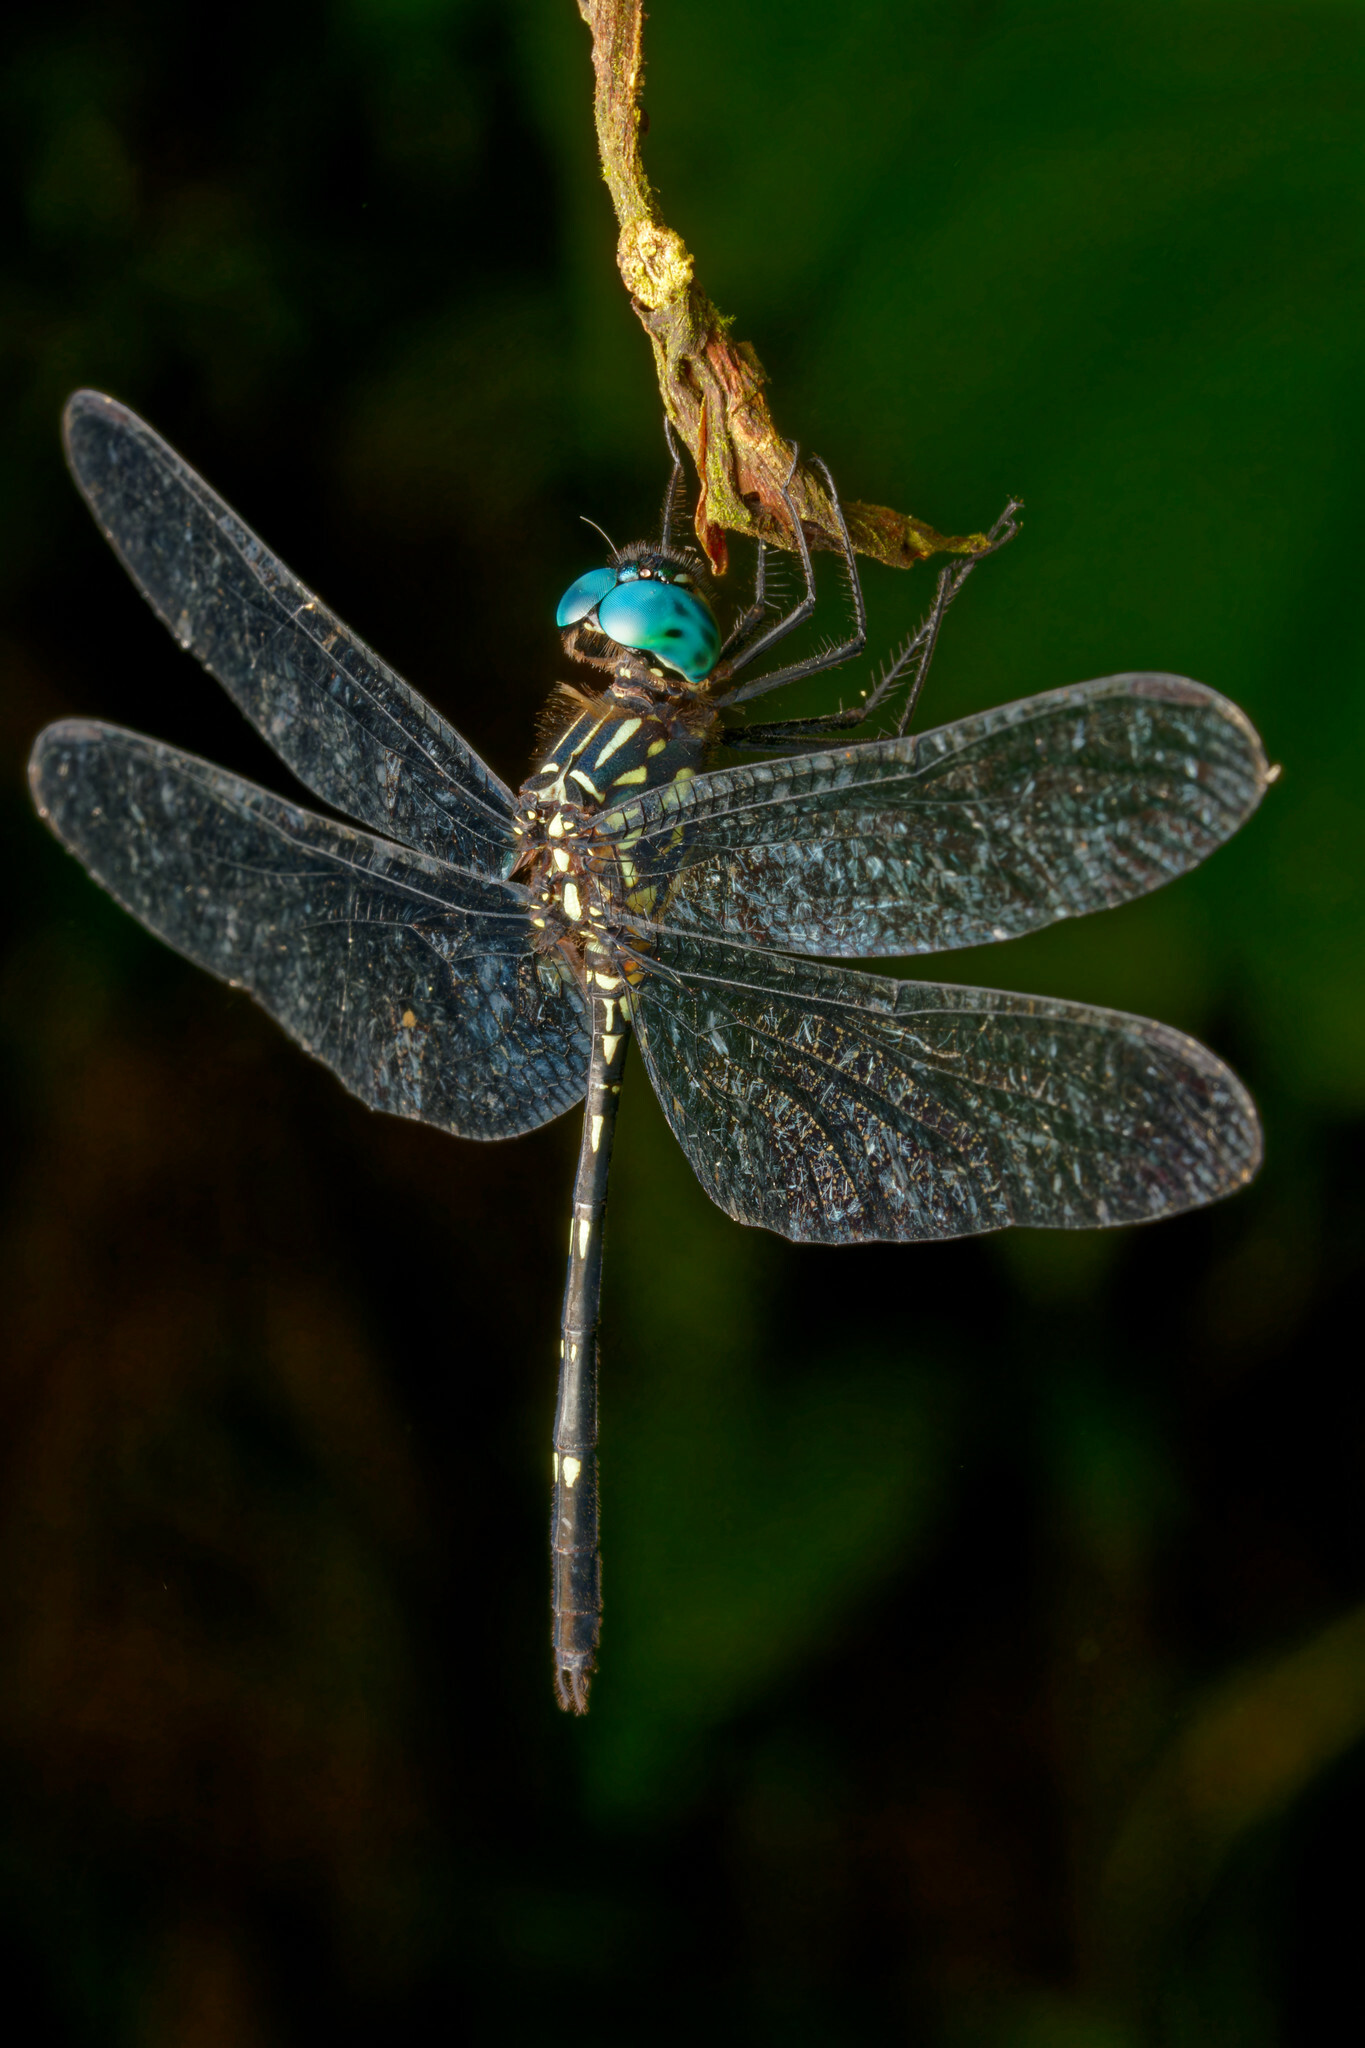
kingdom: Animalia
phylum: Arthropoda
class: Insecta
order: Odonata
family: Libellulidae
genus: Dythemis
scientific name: Dythemis nigra
